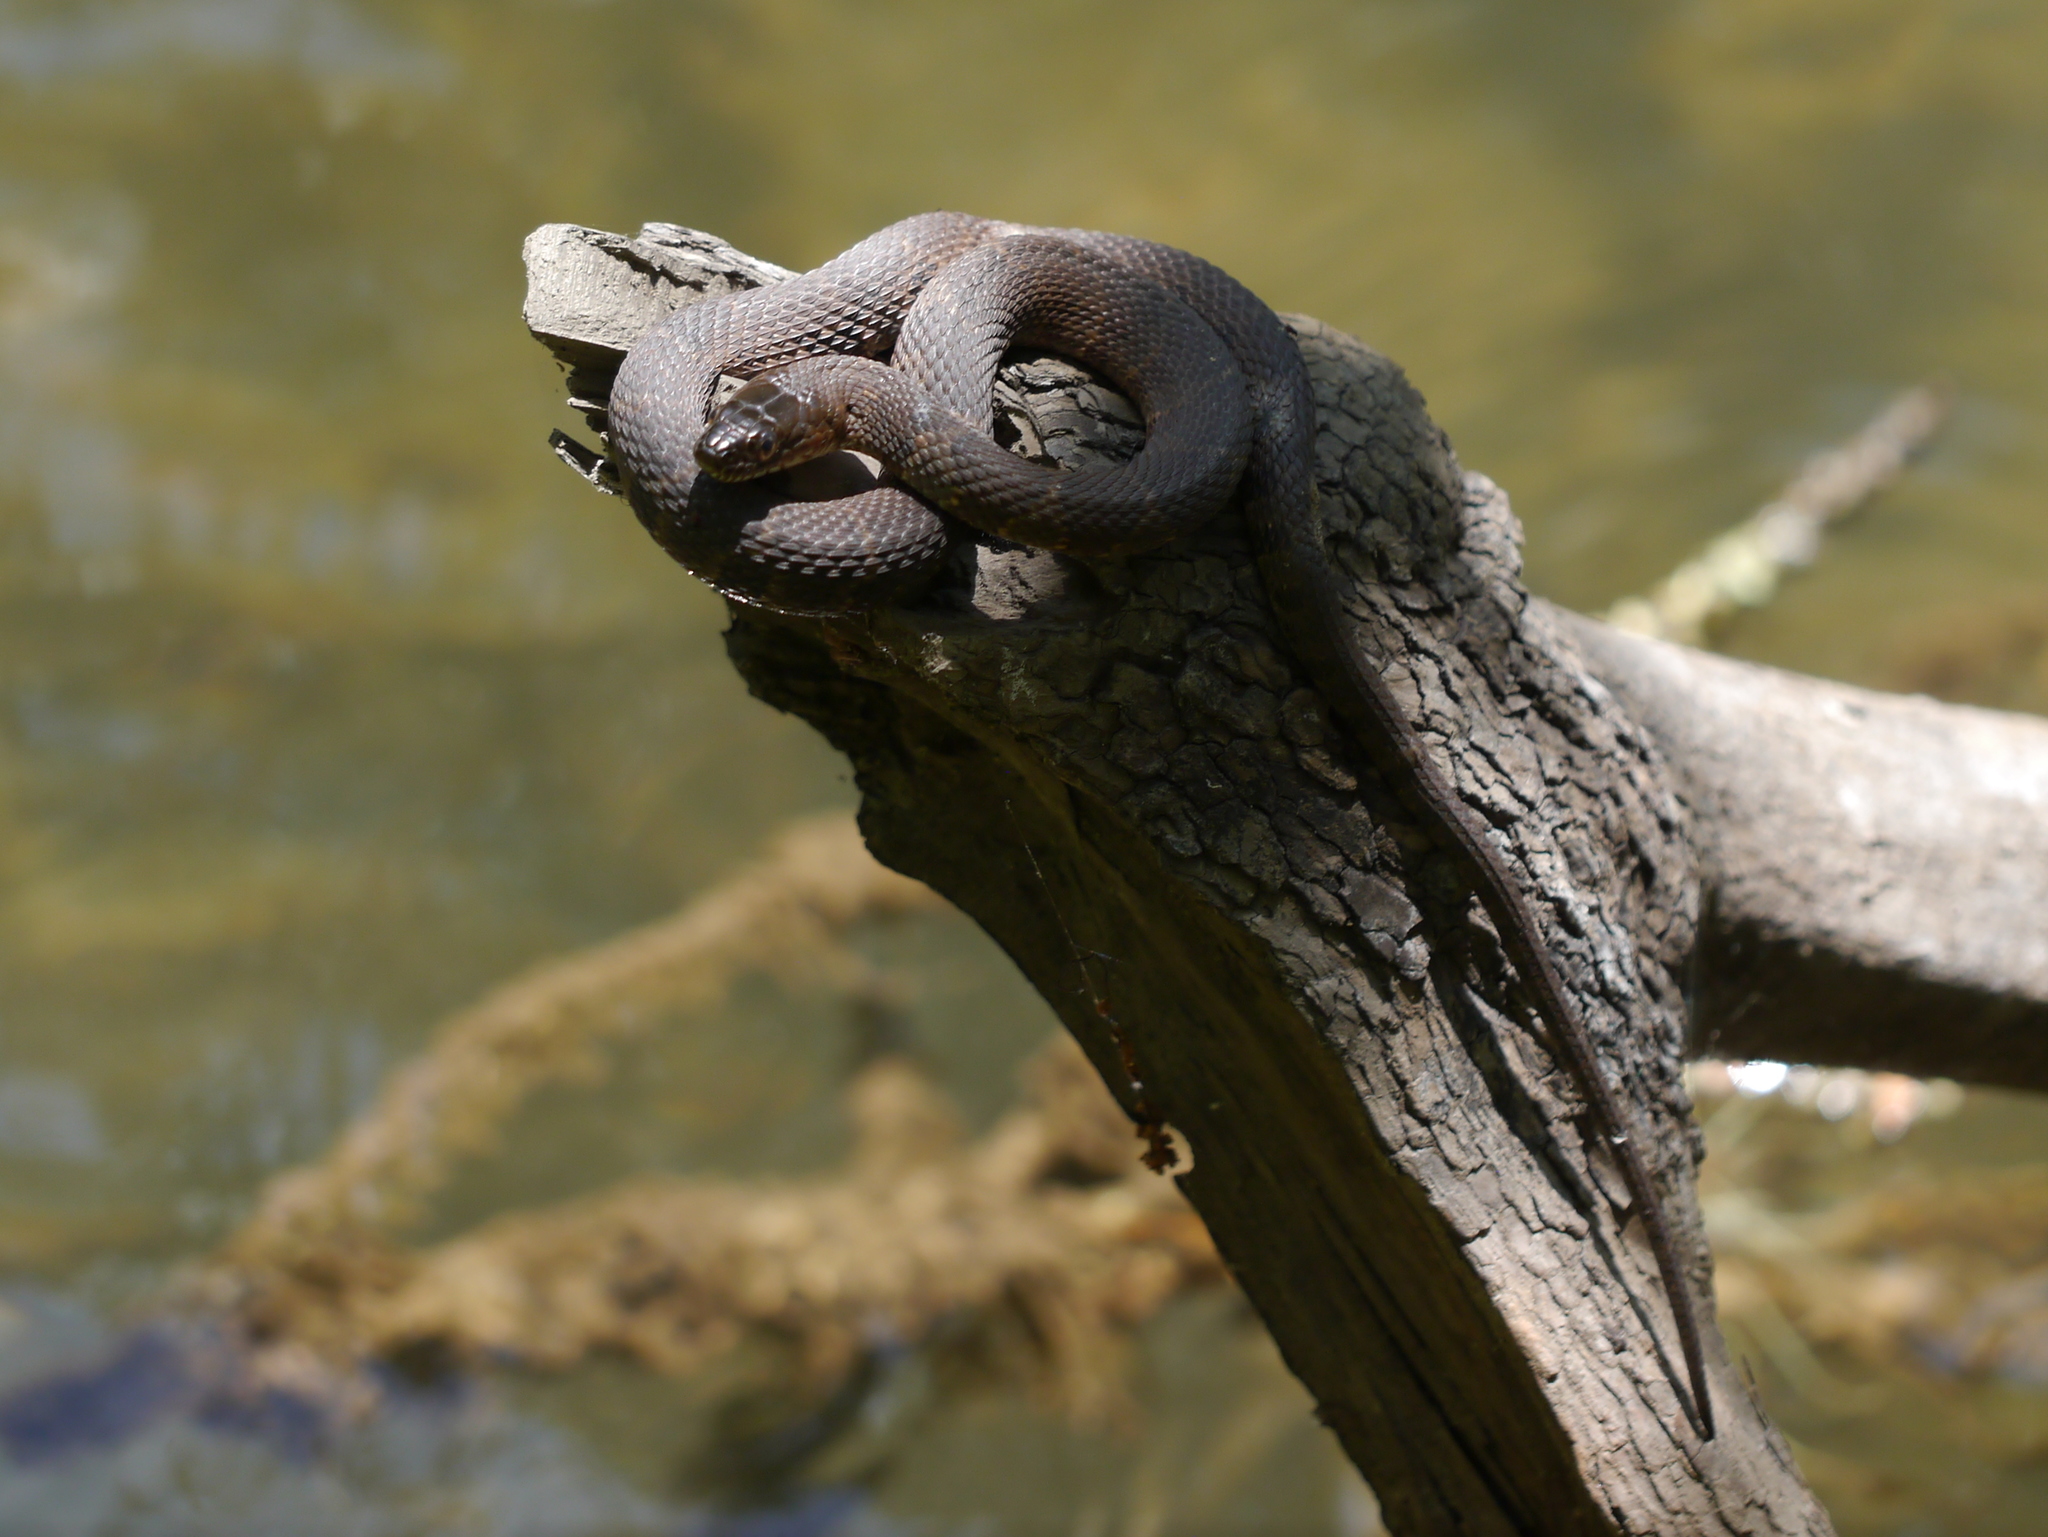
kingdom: Animalia
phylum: Chordata
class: Squamata
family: Colubridae
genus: Nerodia
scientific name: Nerodia sipedon
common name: Northern water snake
